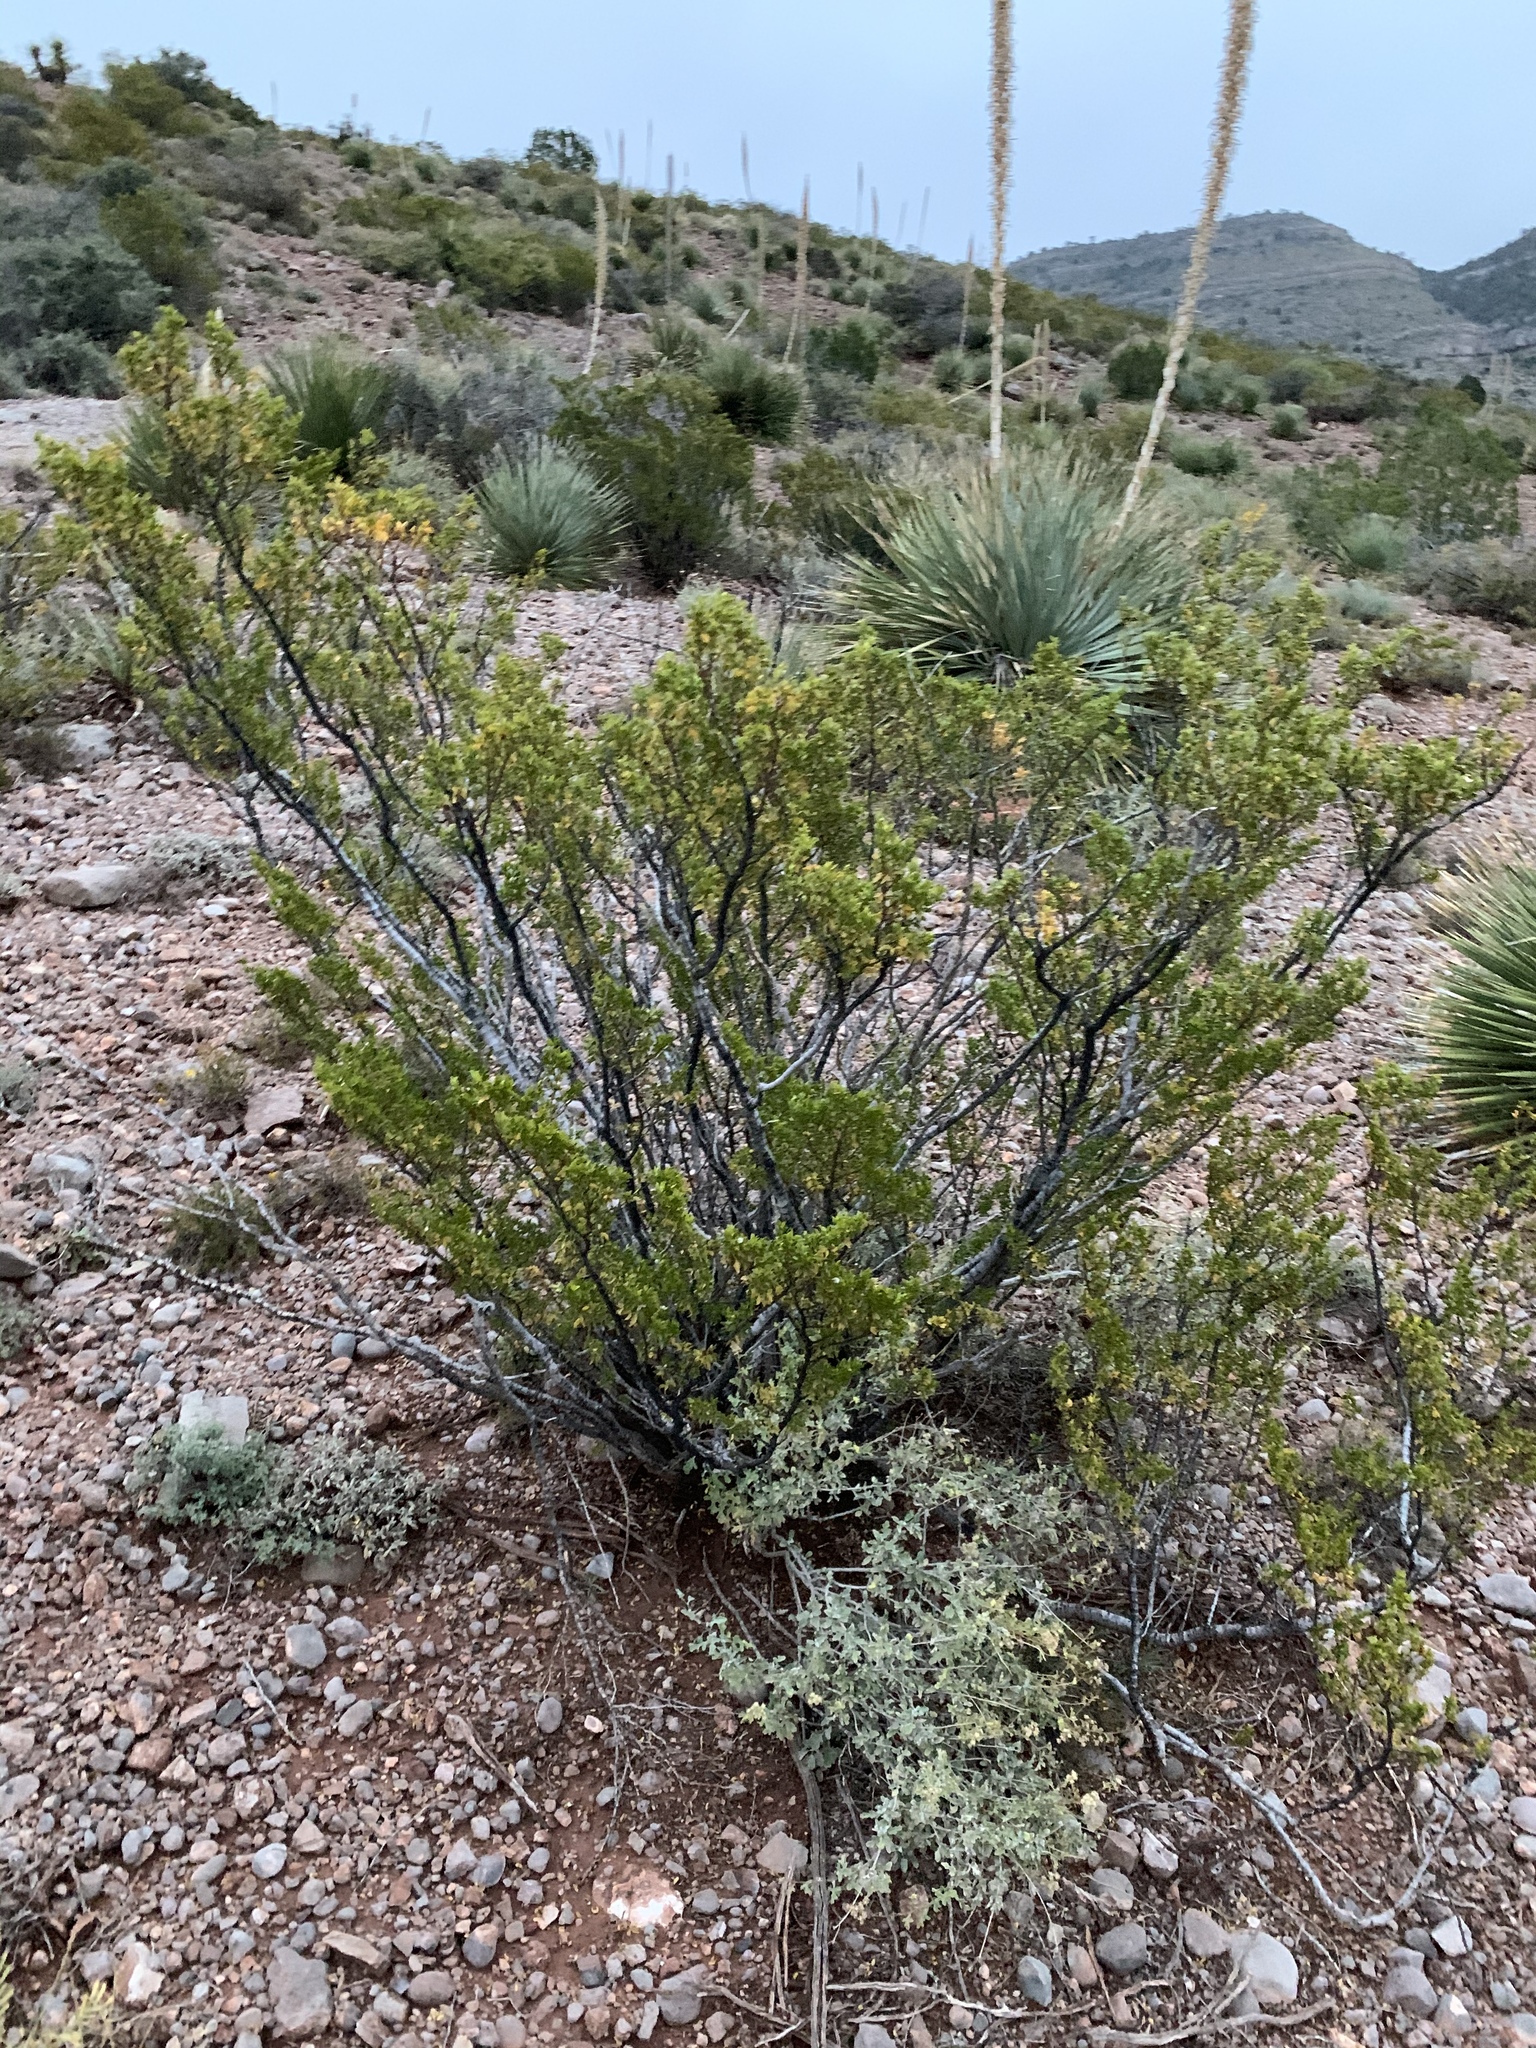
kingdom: Plantae
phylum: Tracheophyta
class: Magnoliopsida
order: Zygophyllales
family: Zygophyllaceae
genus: Larrea
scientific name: Larrea tridentata
